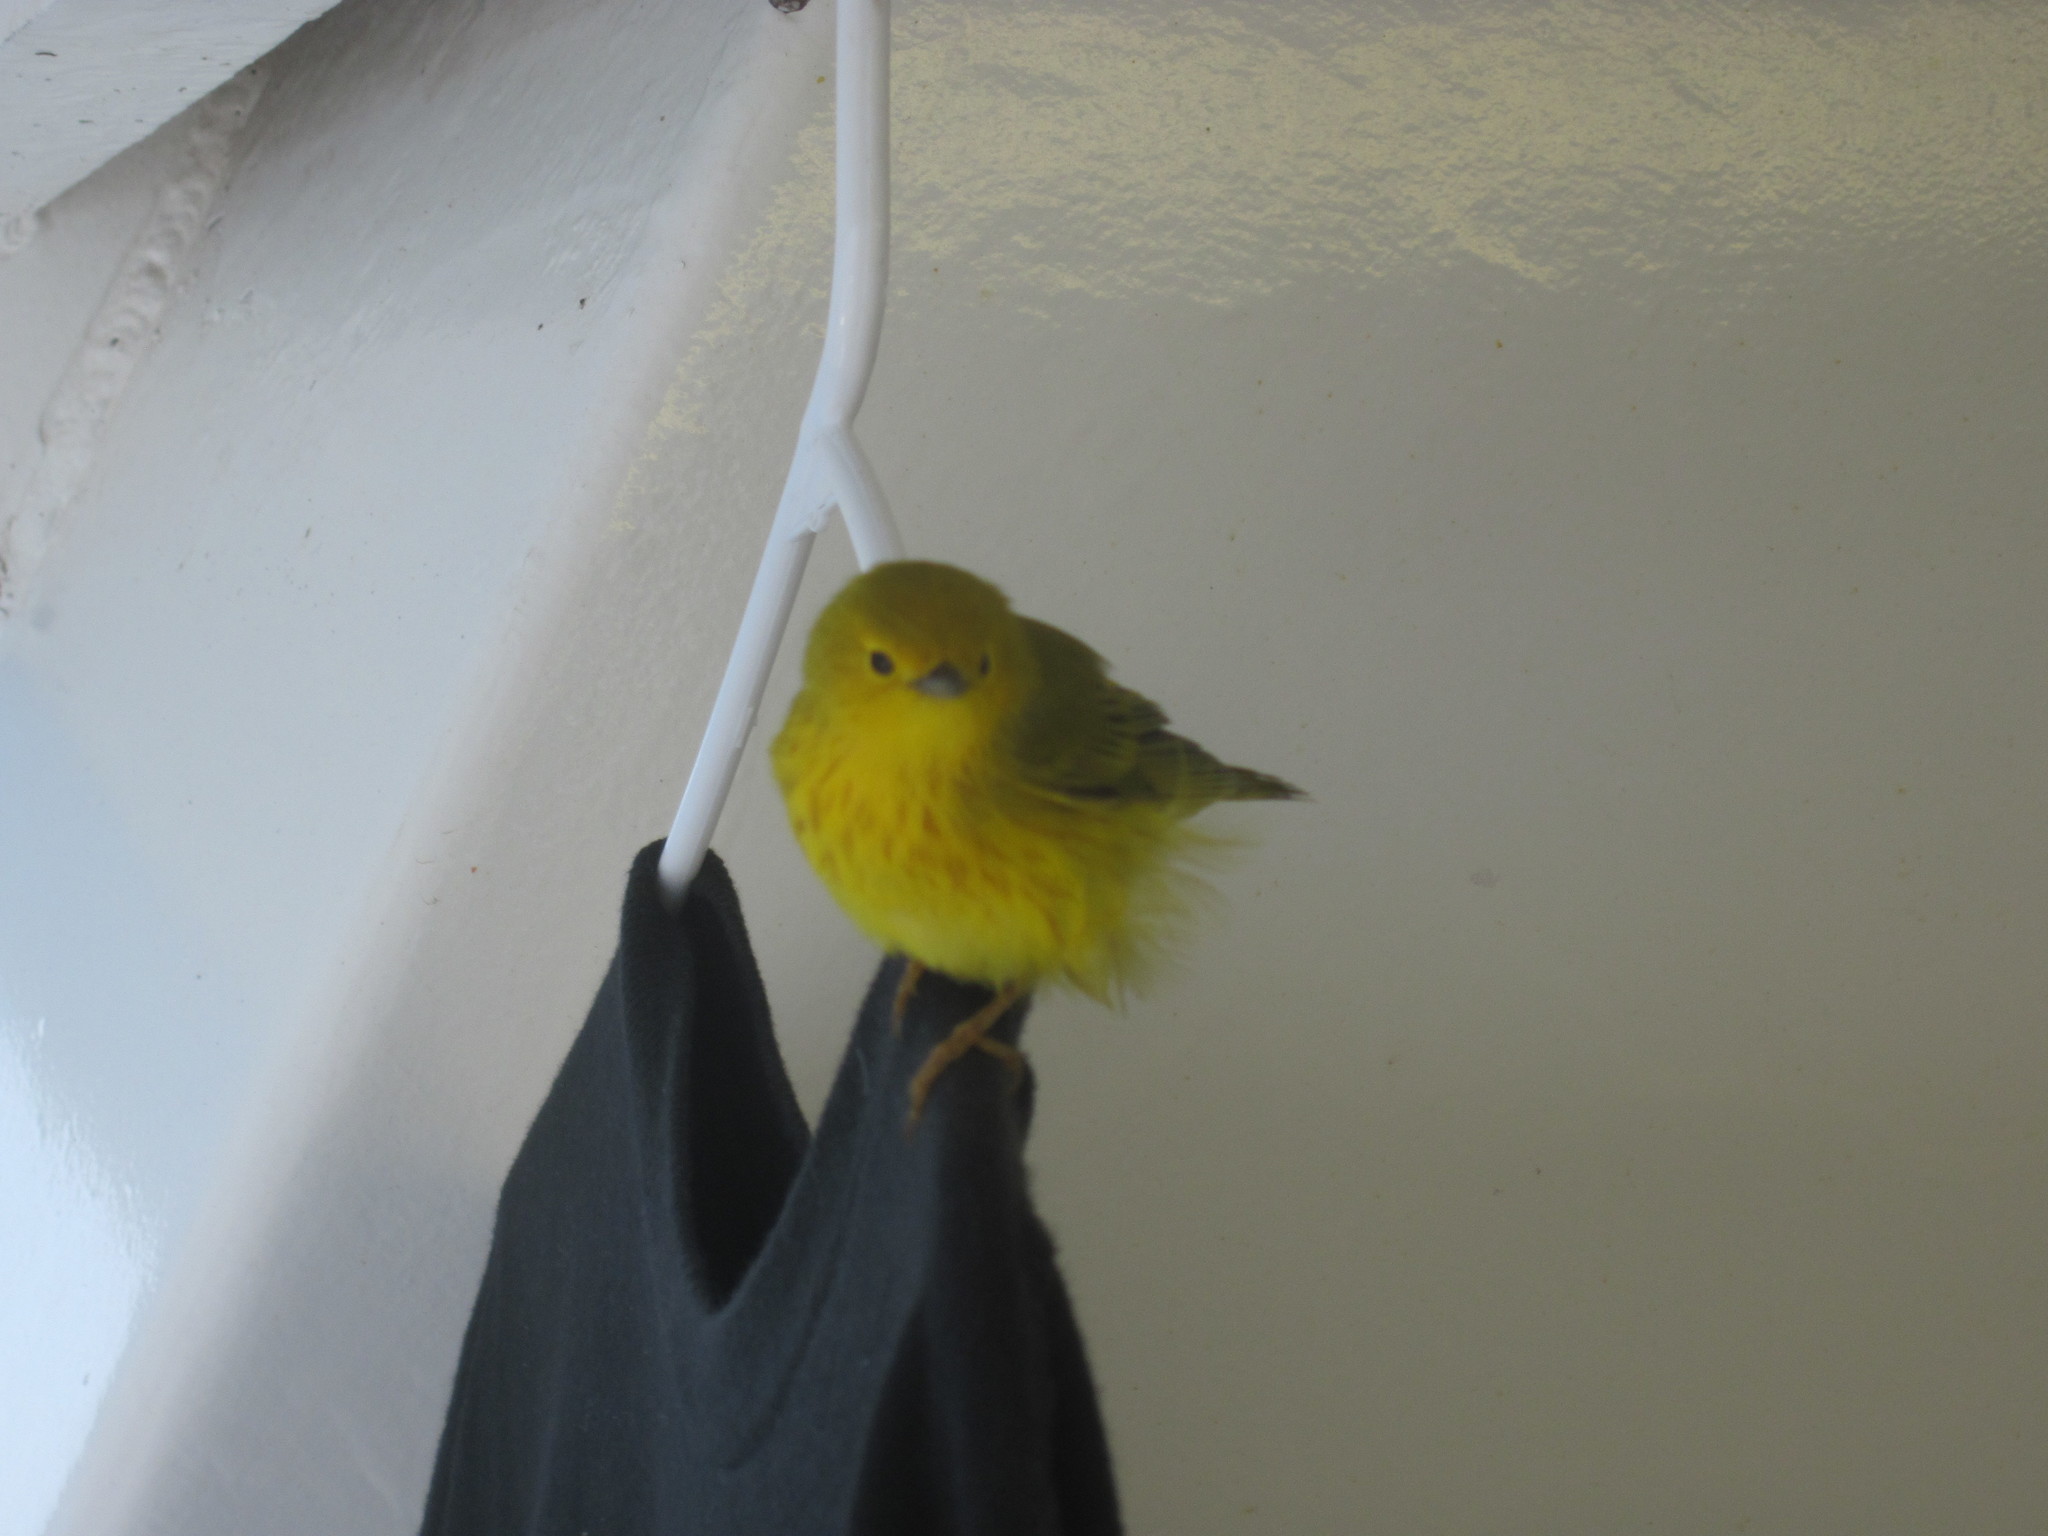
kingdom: Animalia
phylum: Chordata
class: Aves
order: Passeriformes
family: Parulidae
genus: Setophaga
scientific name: Setophaga petechia
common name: Yellow warbler
